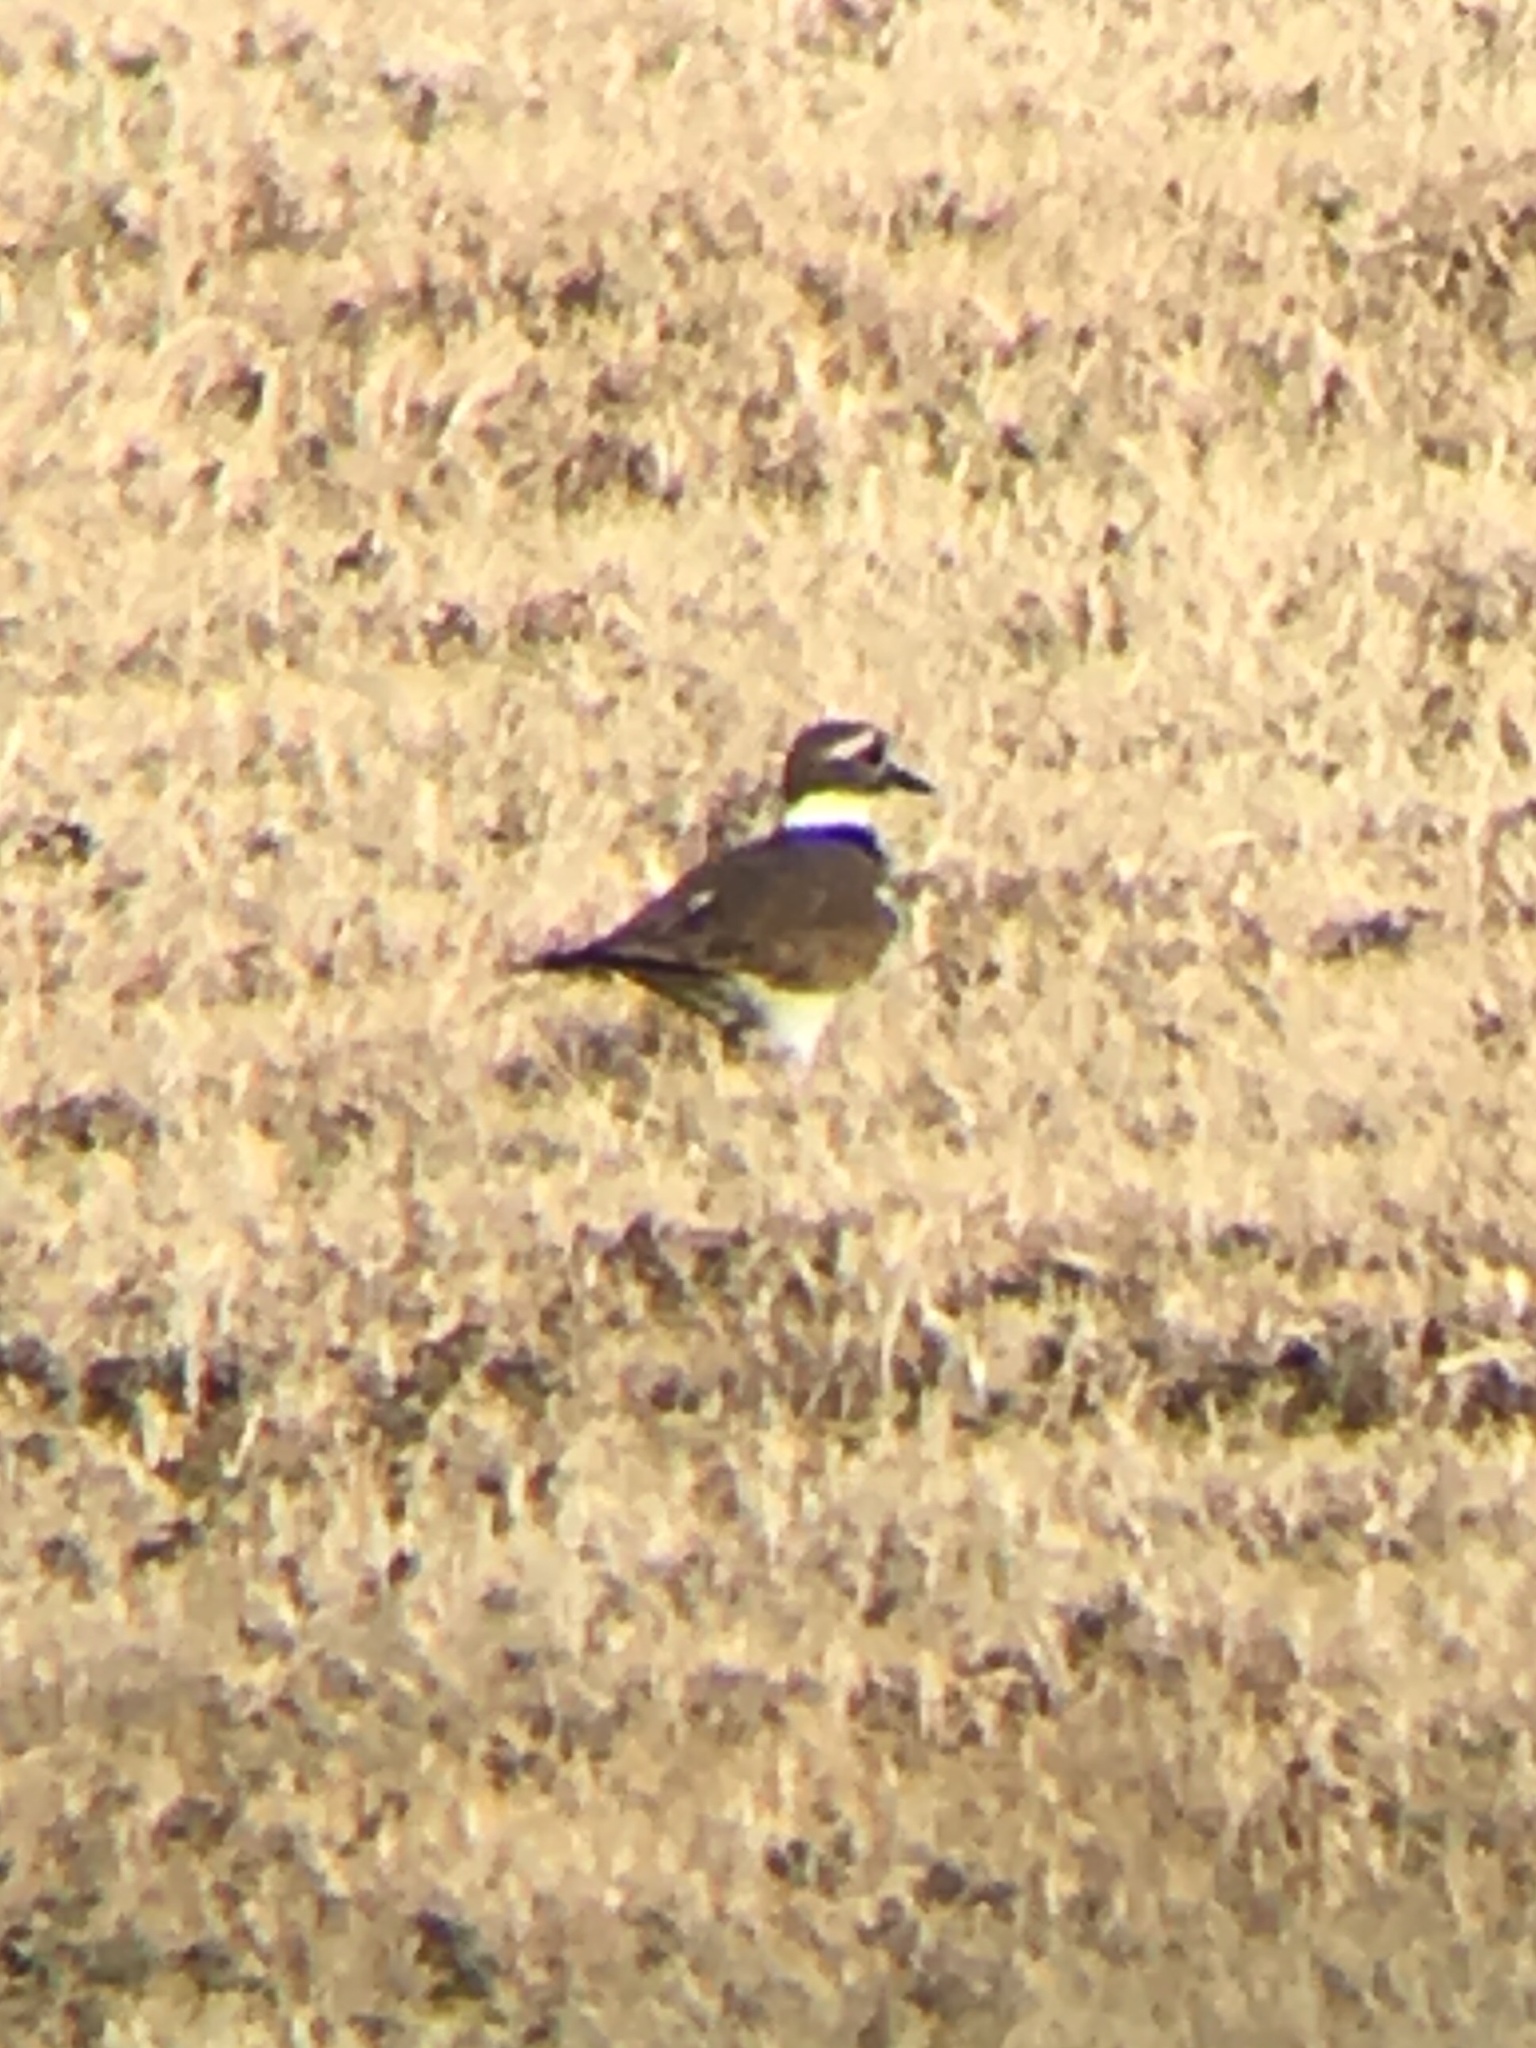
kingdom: Animalia
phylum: Chordata
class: Aves
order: Charadriiformes
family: Charadriidae
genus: Charadrius
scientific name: Charadrius vociferus
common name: Killdeer
